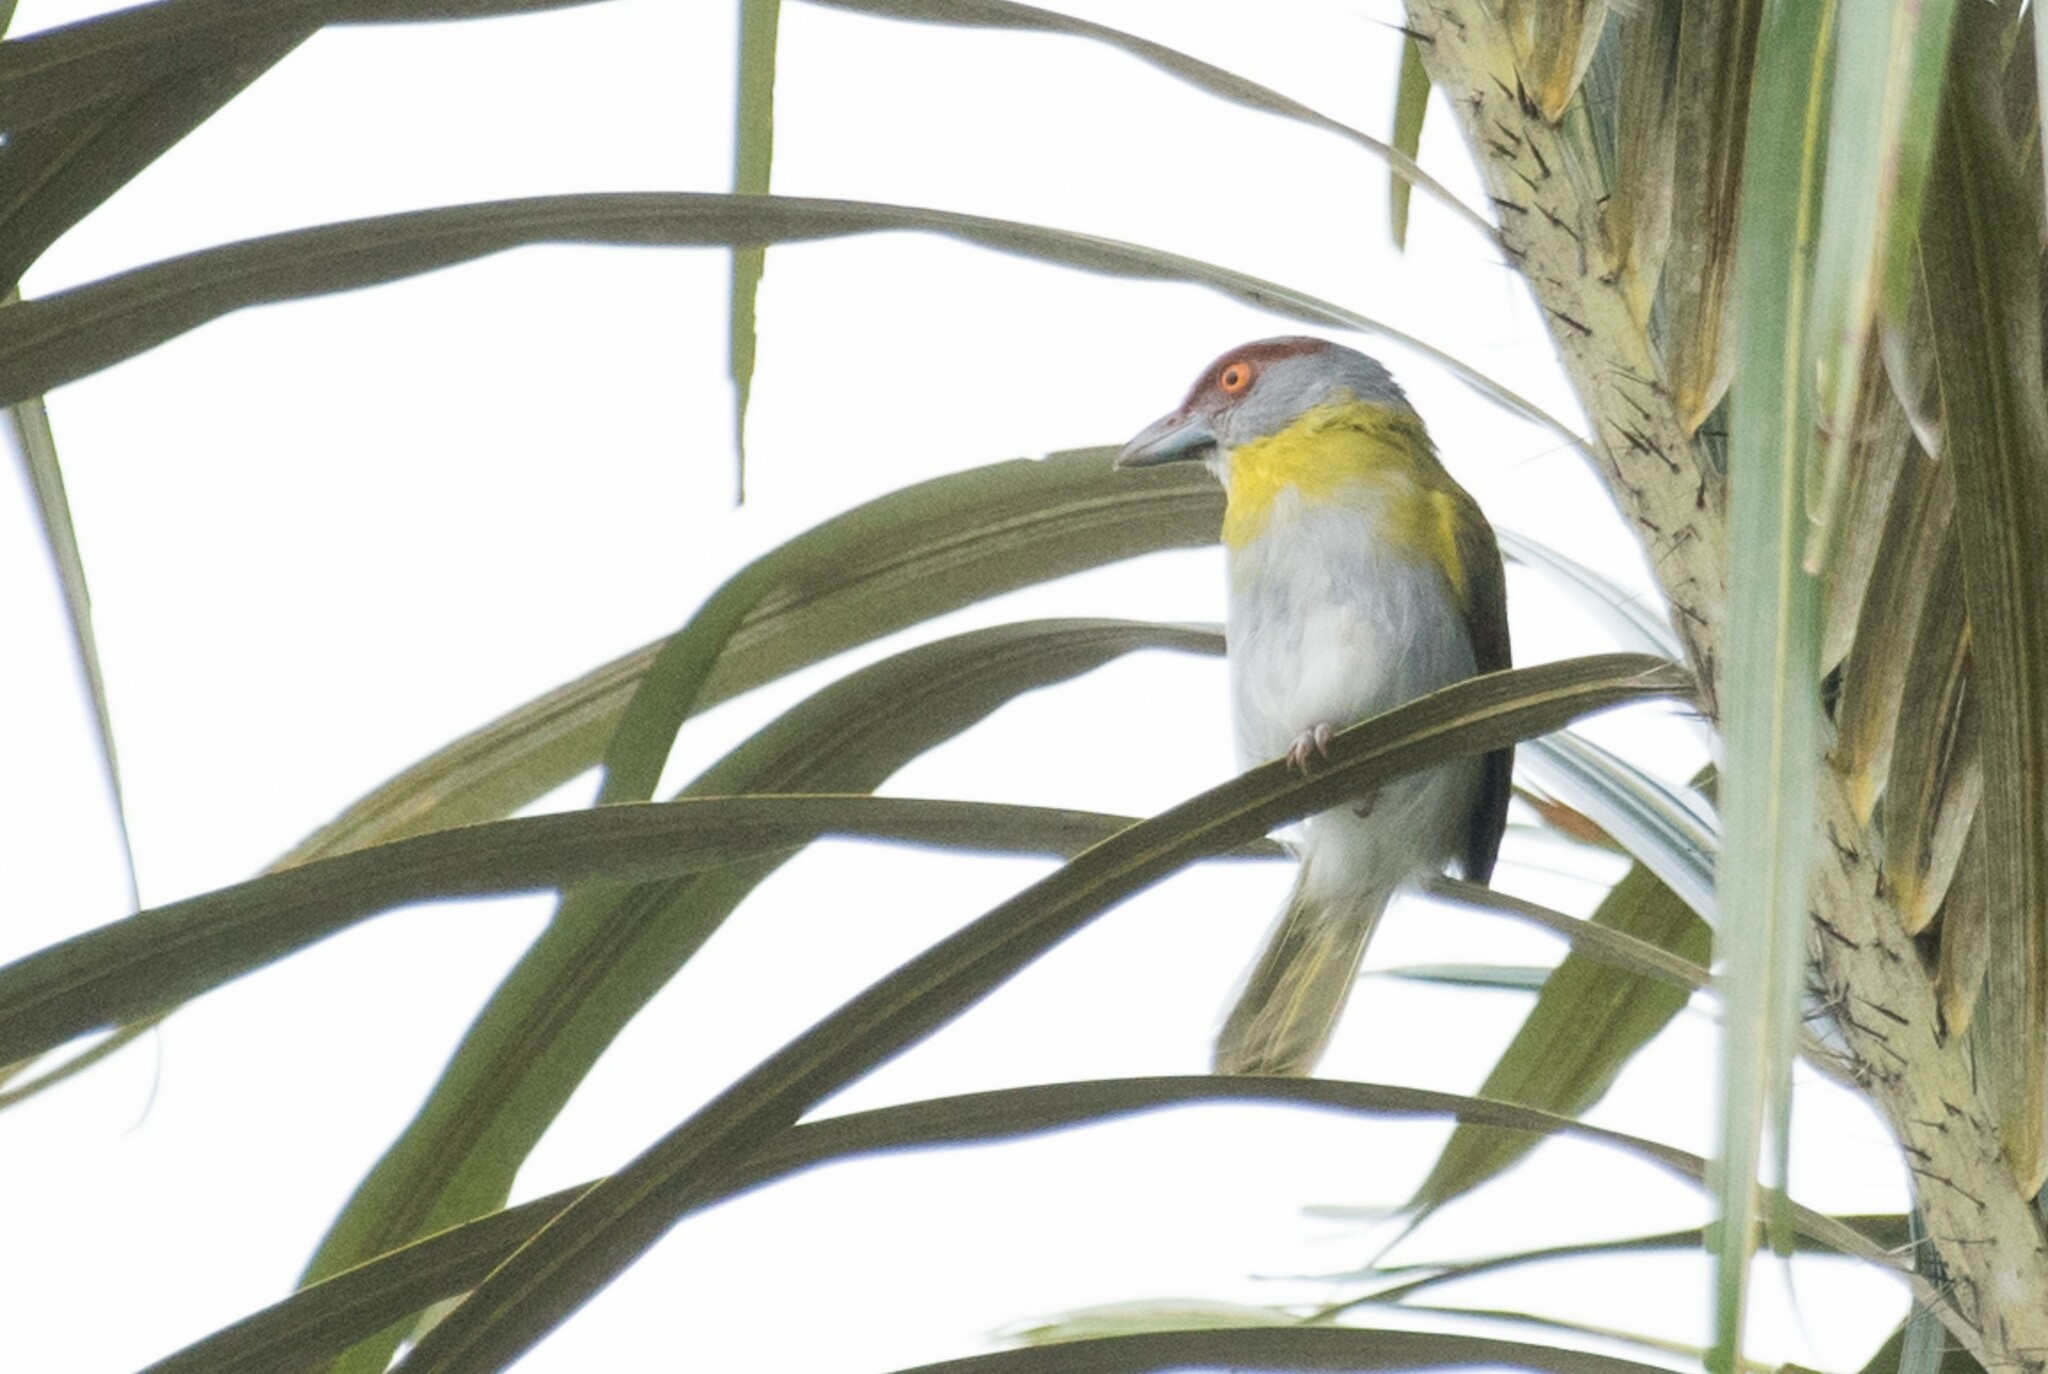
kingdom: Animalia
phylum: Chordata
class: Aves
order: Passeriformes
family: Vireonidae
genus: Cyclarhis
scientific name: Cyclarhis gujanensis
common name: Rufous-browed peppershrike
